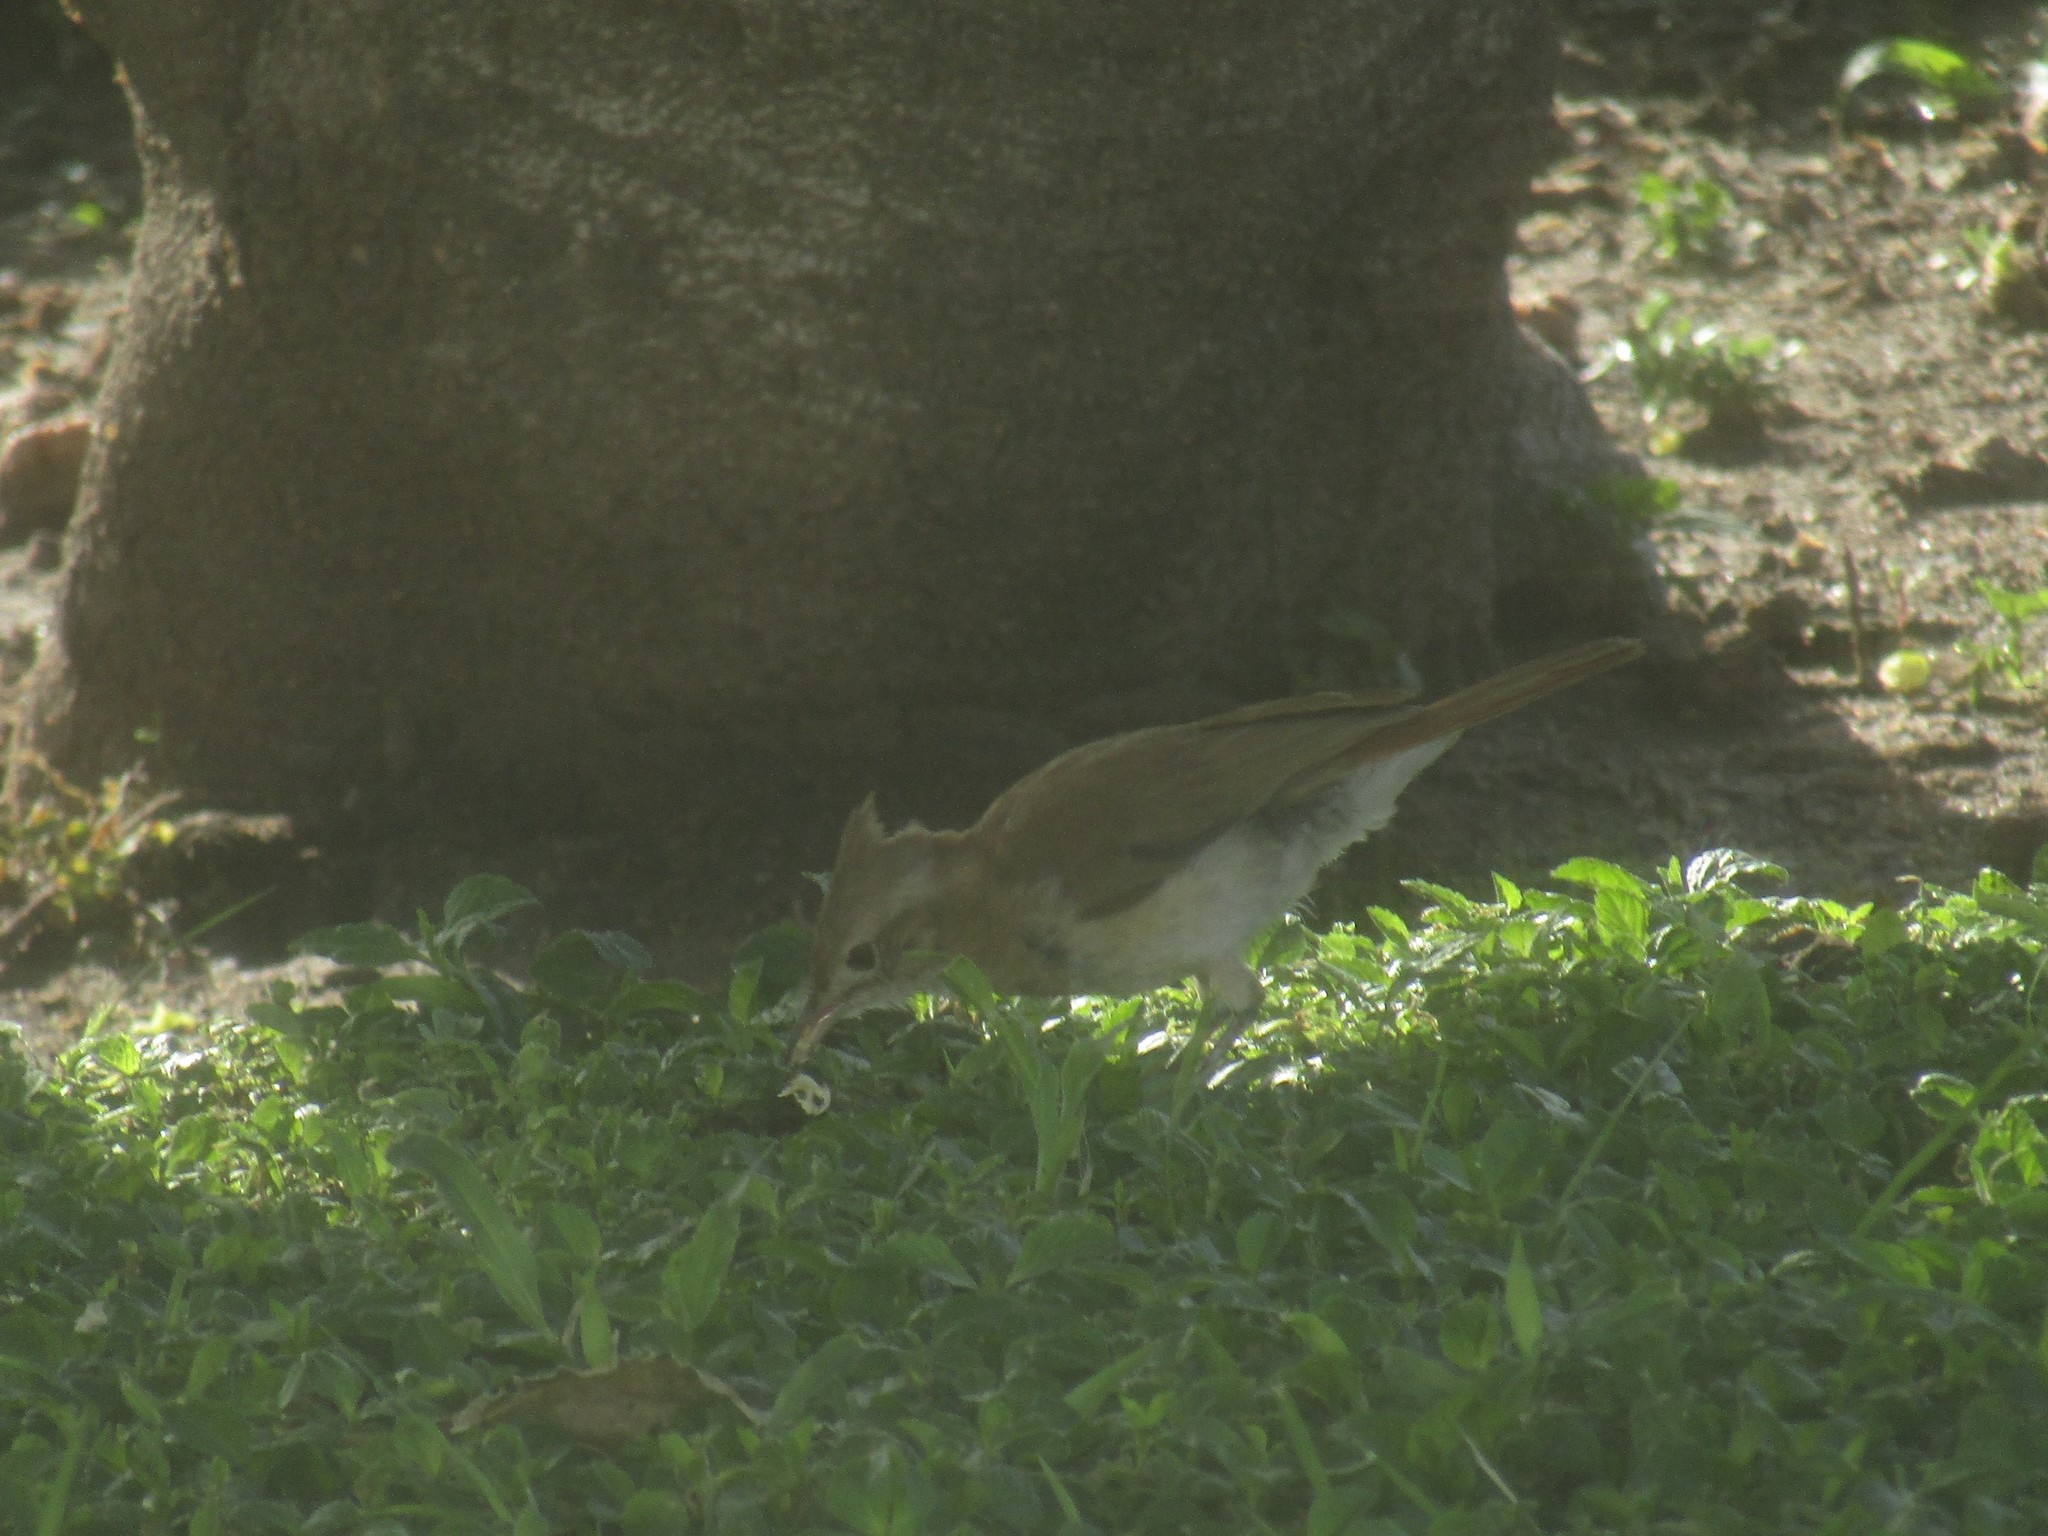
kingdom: Animalia
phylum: Chordata
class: Aves
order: Passeriformes
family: Furnariidae
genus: Furnarius
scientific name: Furnarius cristatus
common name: Crested hornero
